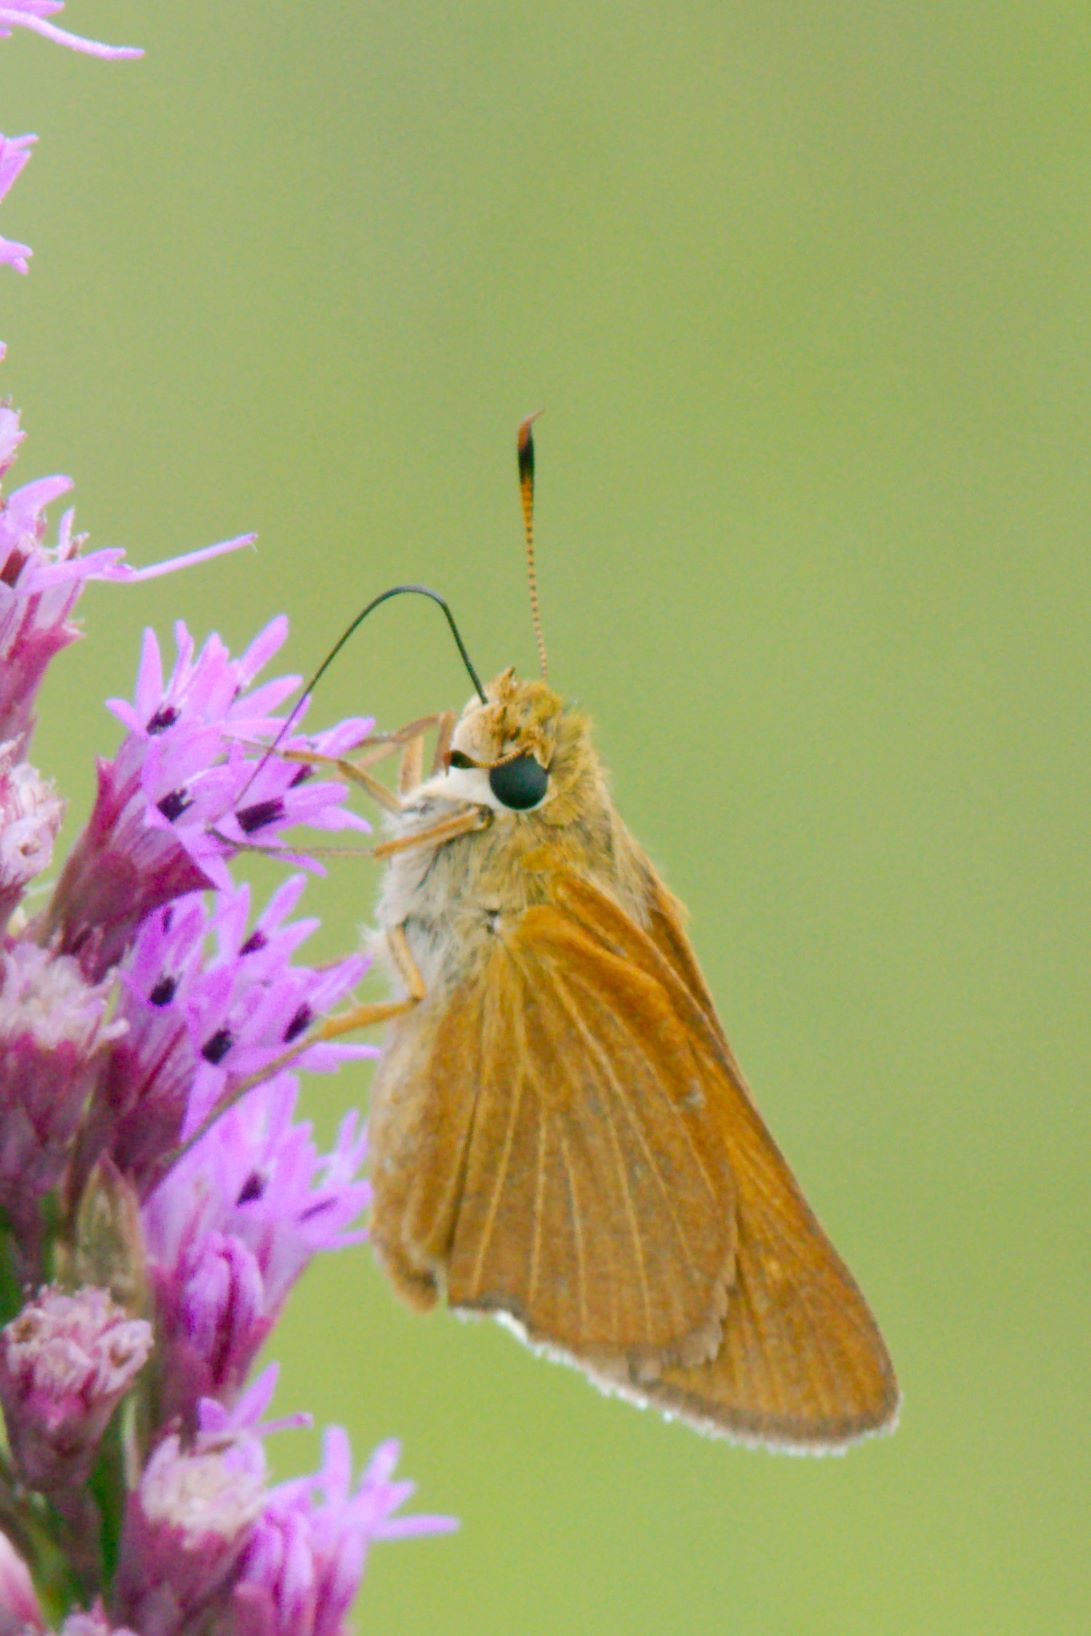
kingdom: Animalia
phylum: Arthropoda
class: Insecta
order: Lepidoptera
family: Hesperiidae
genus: Euphyes
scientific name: Euphyes berryi
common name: Berry's skipper
